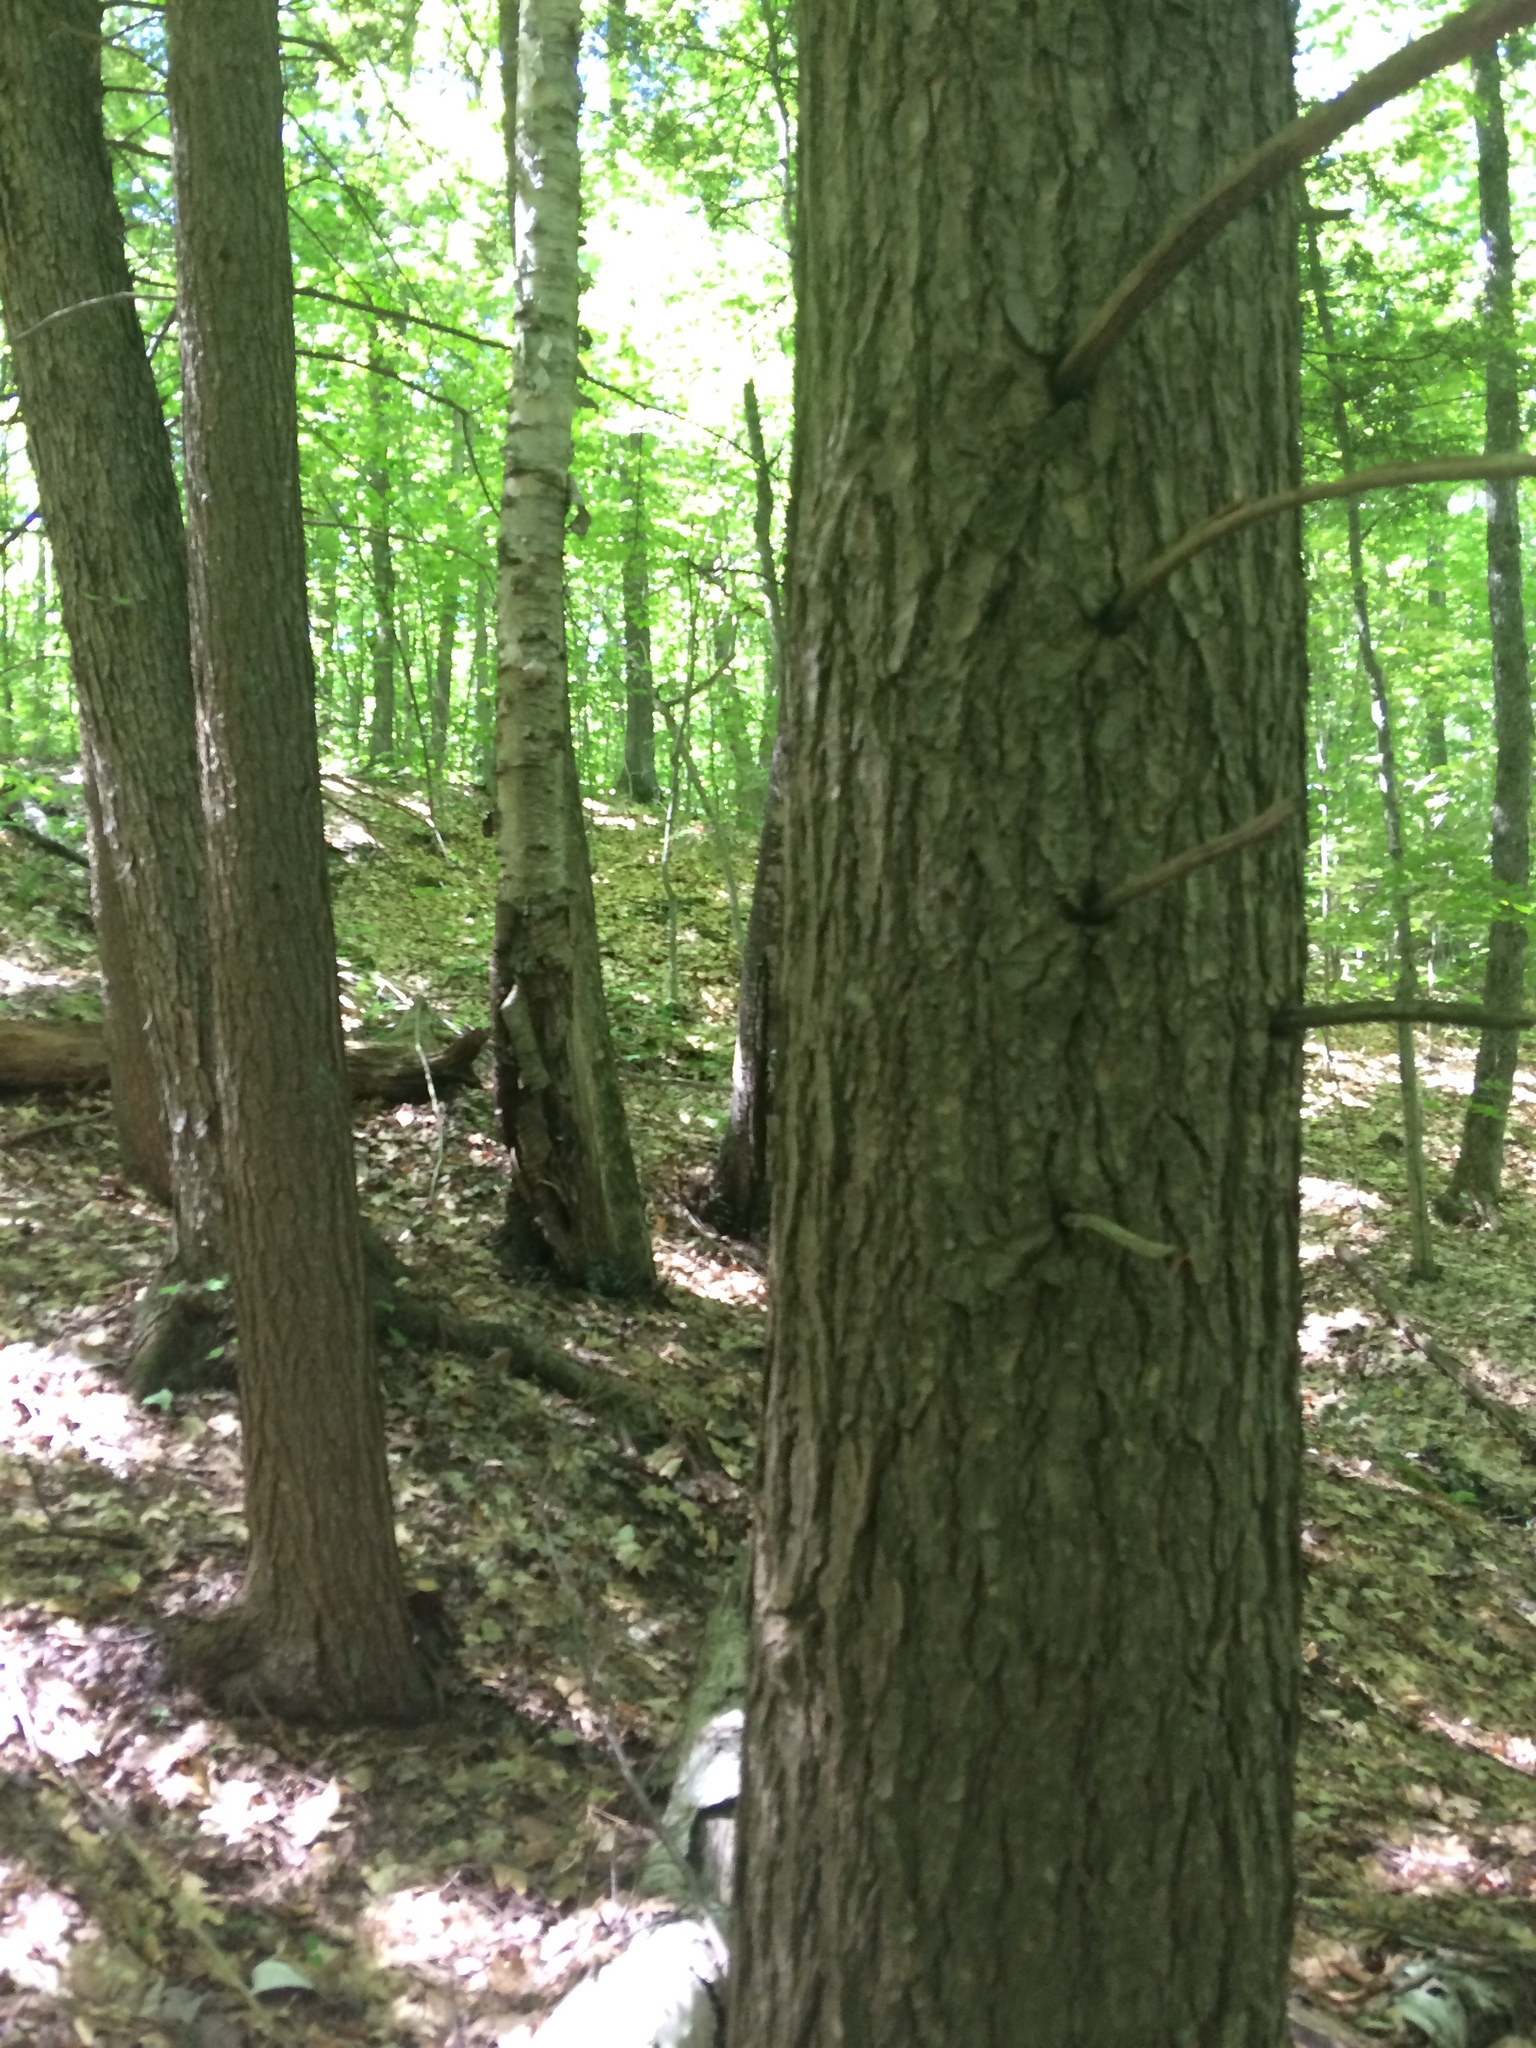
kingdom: Plantae
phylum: Tracheophyta
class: Pinopsida
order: Pinales
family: Pinaceae
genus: Tsuga
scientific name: Tsuga canadensis
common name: Eastern hemlock
